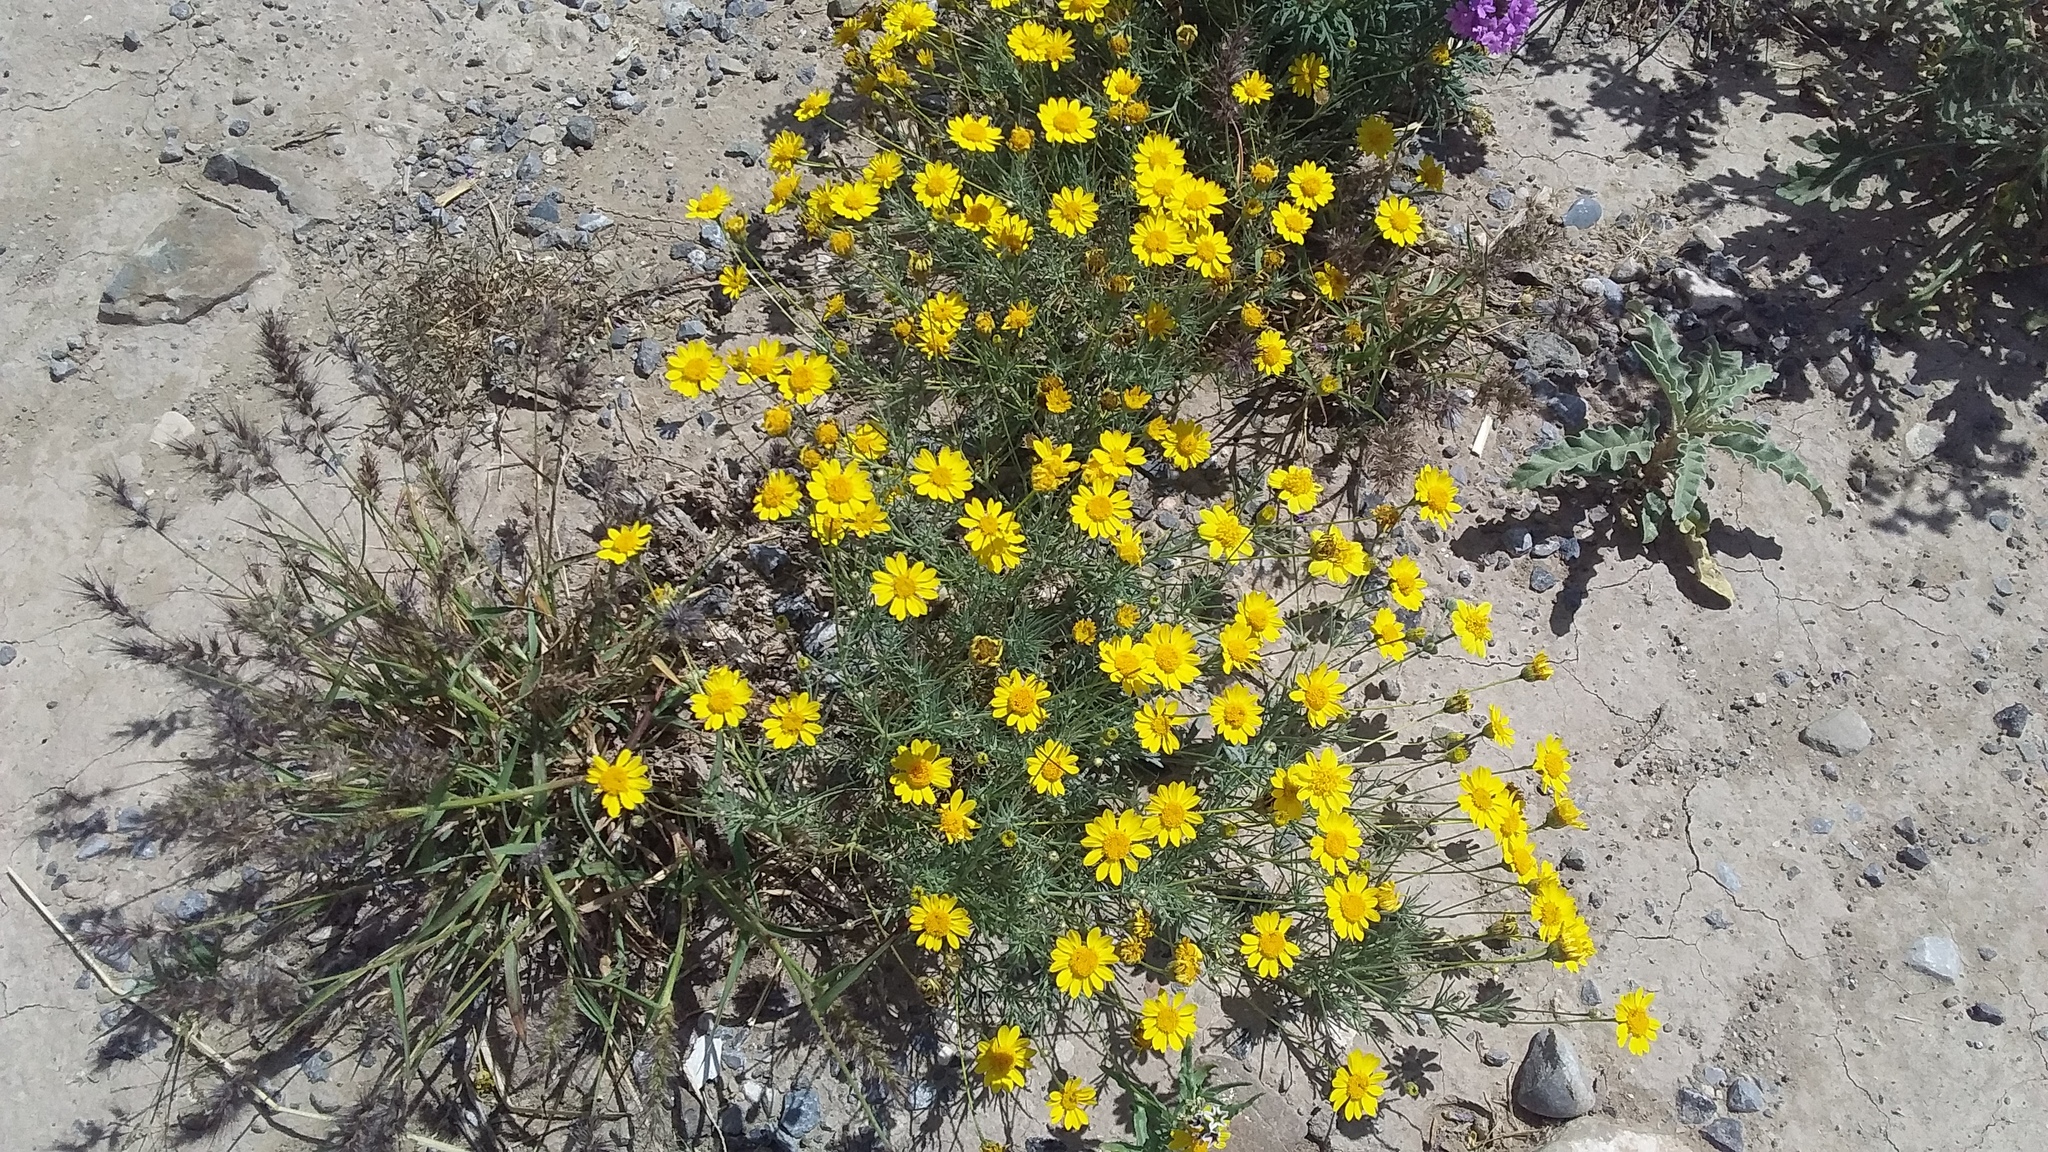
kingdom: Plantae
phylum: Tracheophyta
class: Magnoliopsida
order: Asterales
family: Asteraceae
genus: Thymophylla
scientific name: Thymophylla pentachaeta
